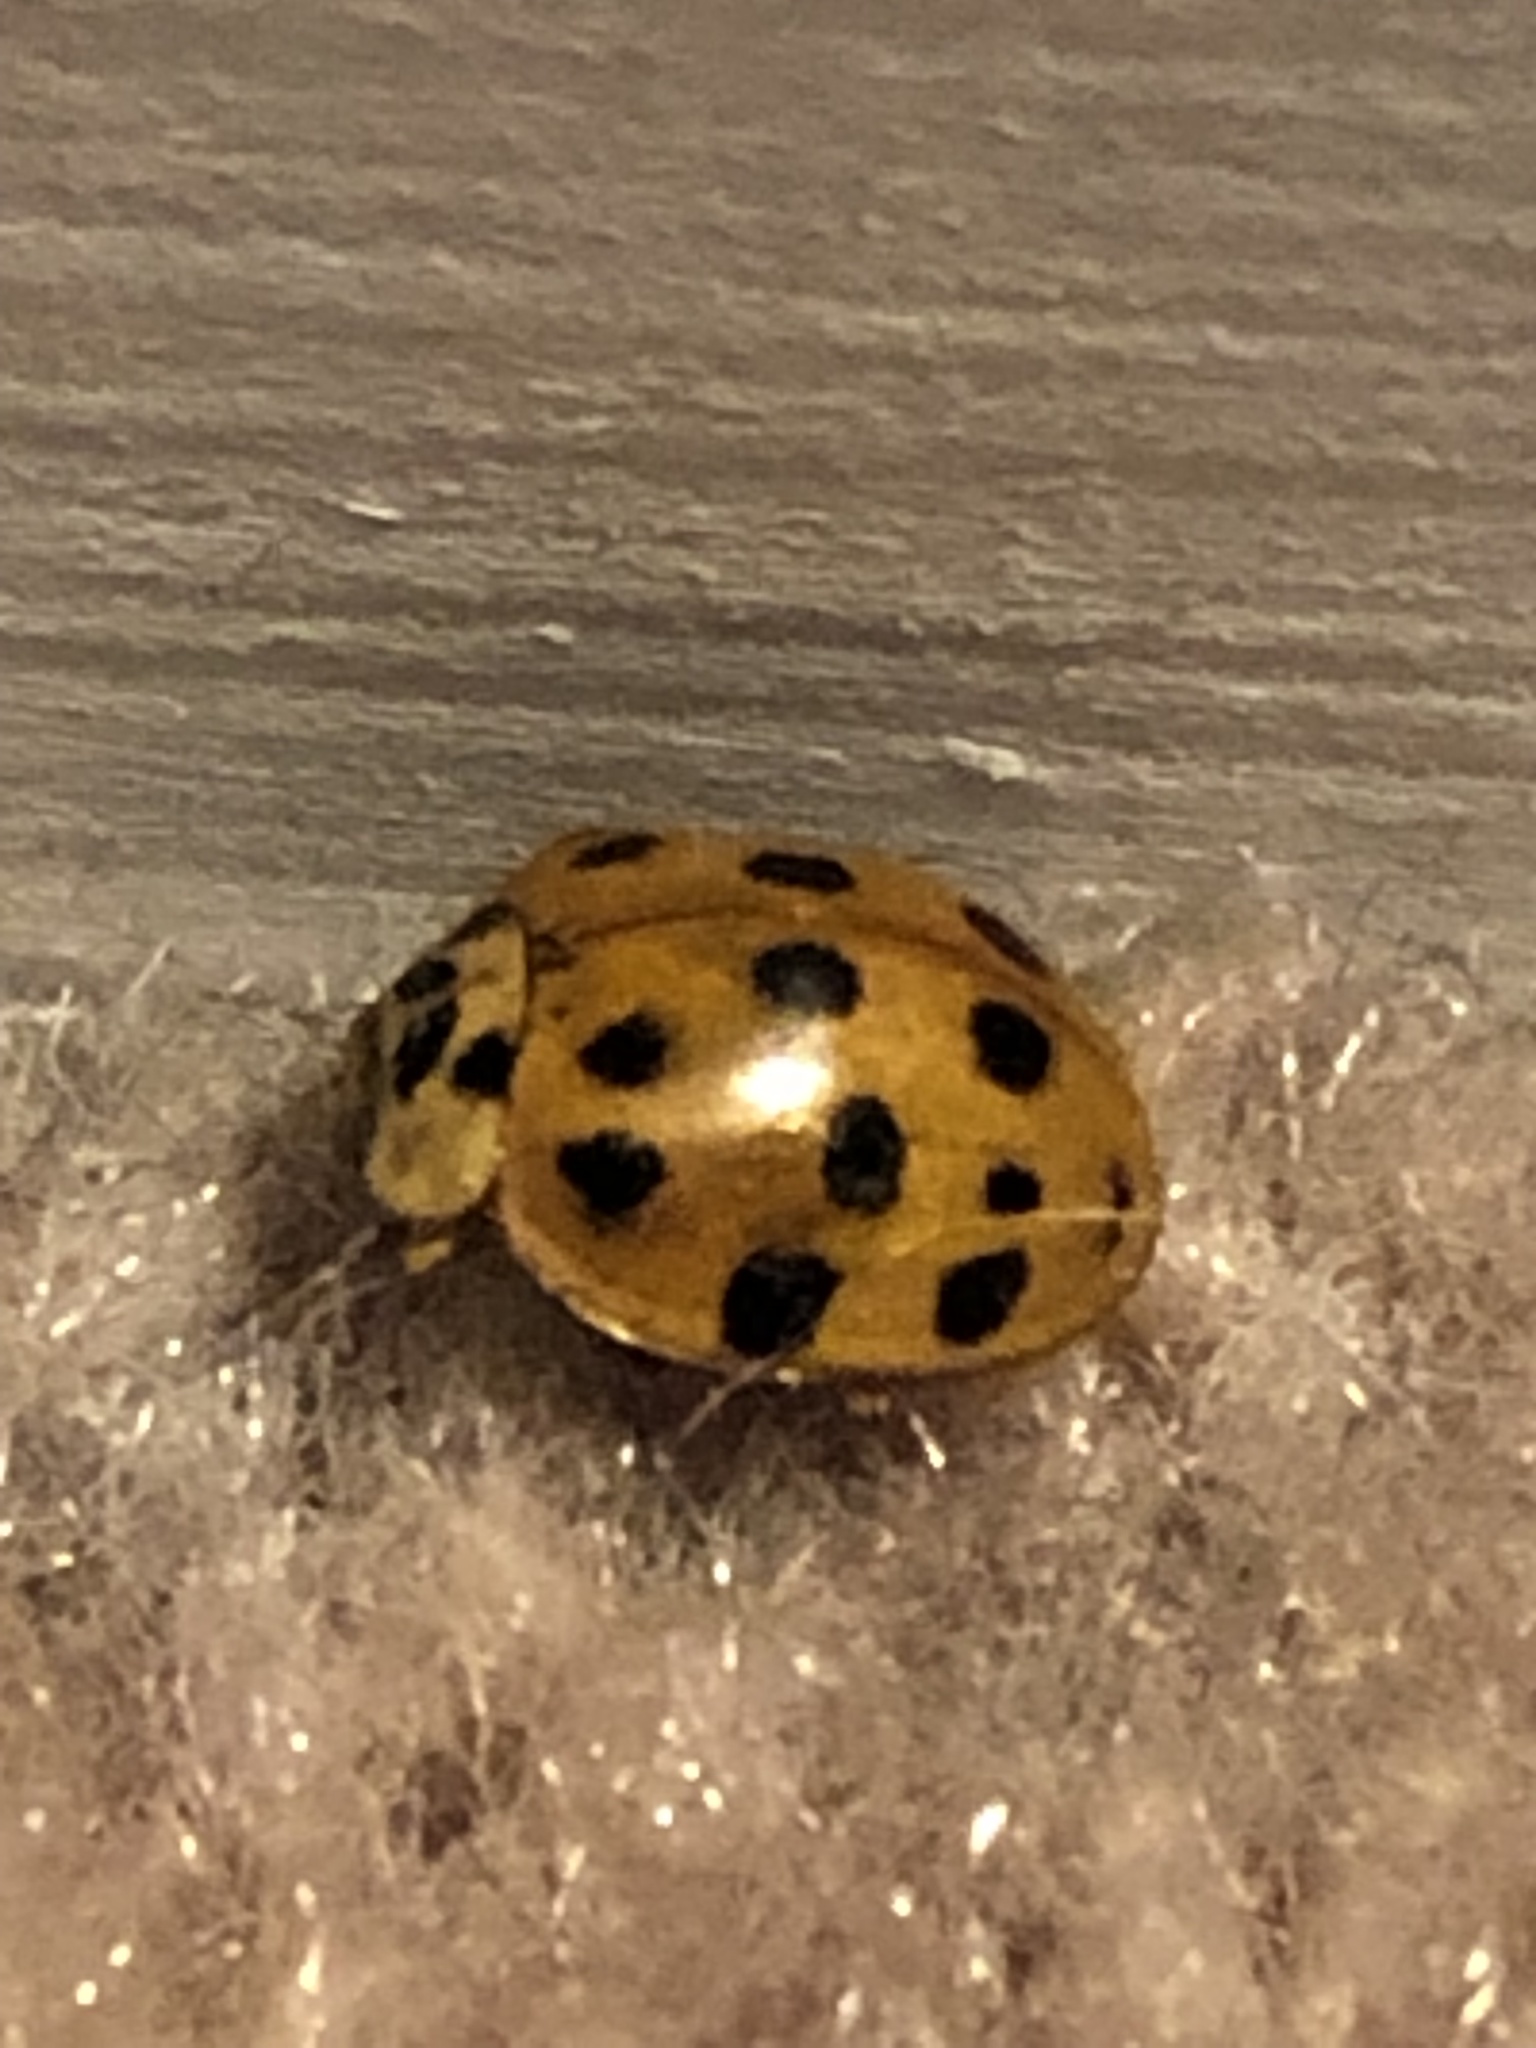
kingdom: Animalia
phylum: Arthropoda
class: Insecta
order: Coleoptera
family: Coccinellidae
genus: Harmonia
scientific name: Harmonia axyridis
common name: Harlequin ladybird
